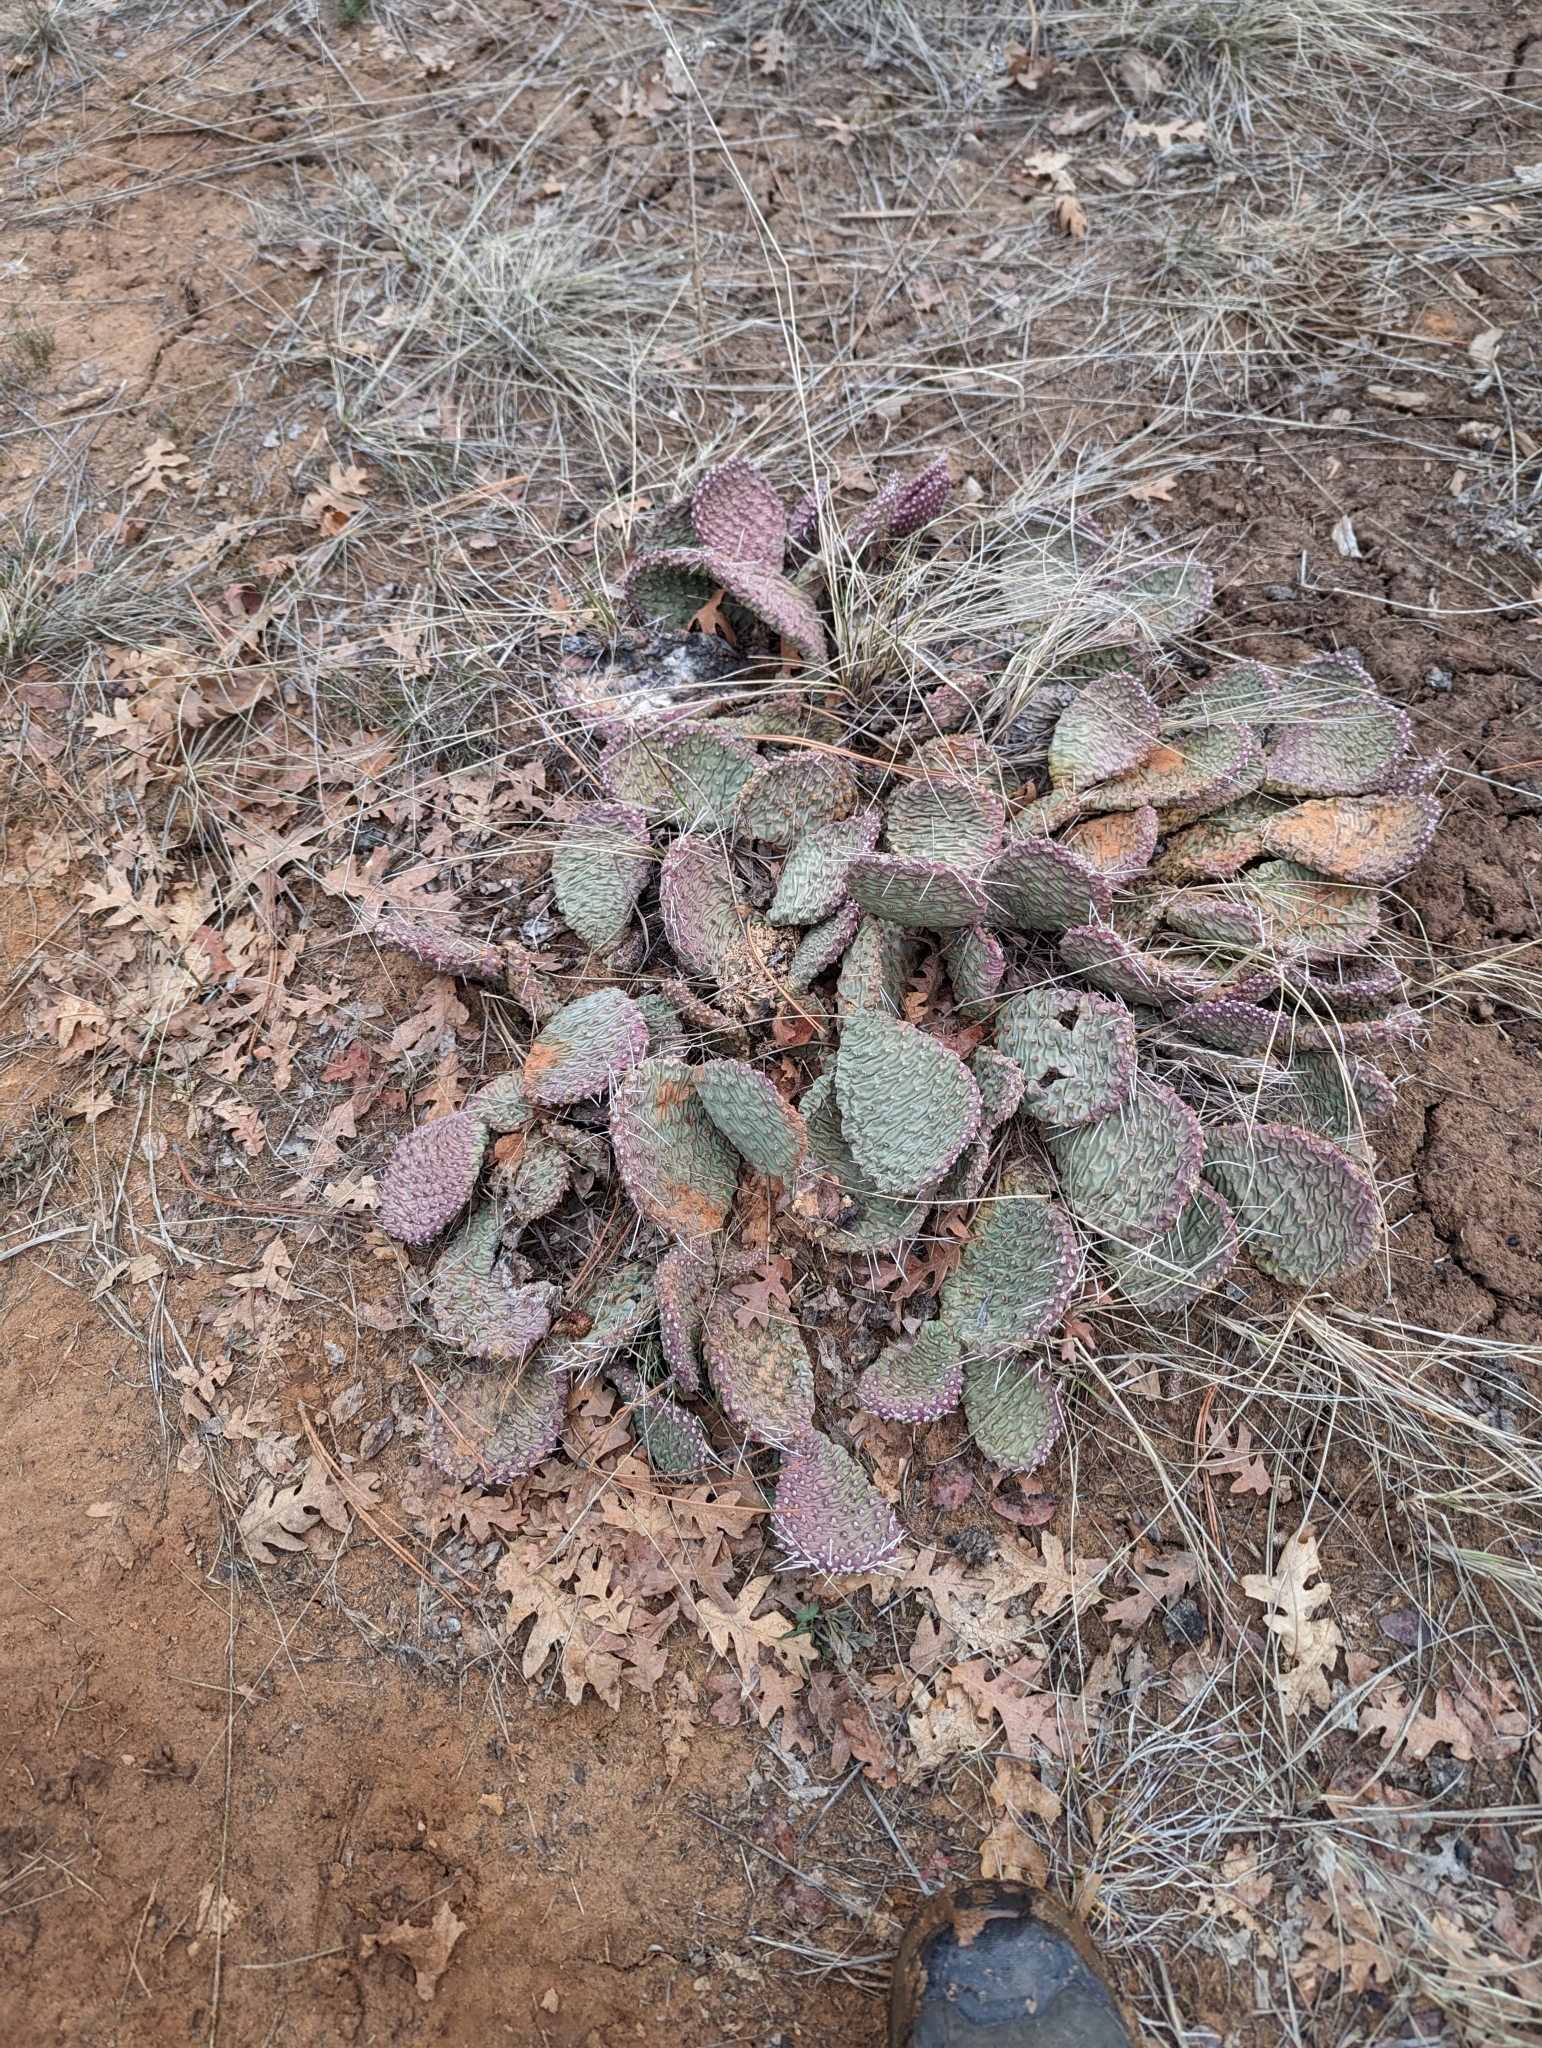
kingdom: Plantae
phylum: Tracheophyta
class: Magnoliopsida
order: Caryophyllales
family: Cactaceae
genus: Opuntia
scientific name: Opuntia aurea
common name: Golden prickly-pear
